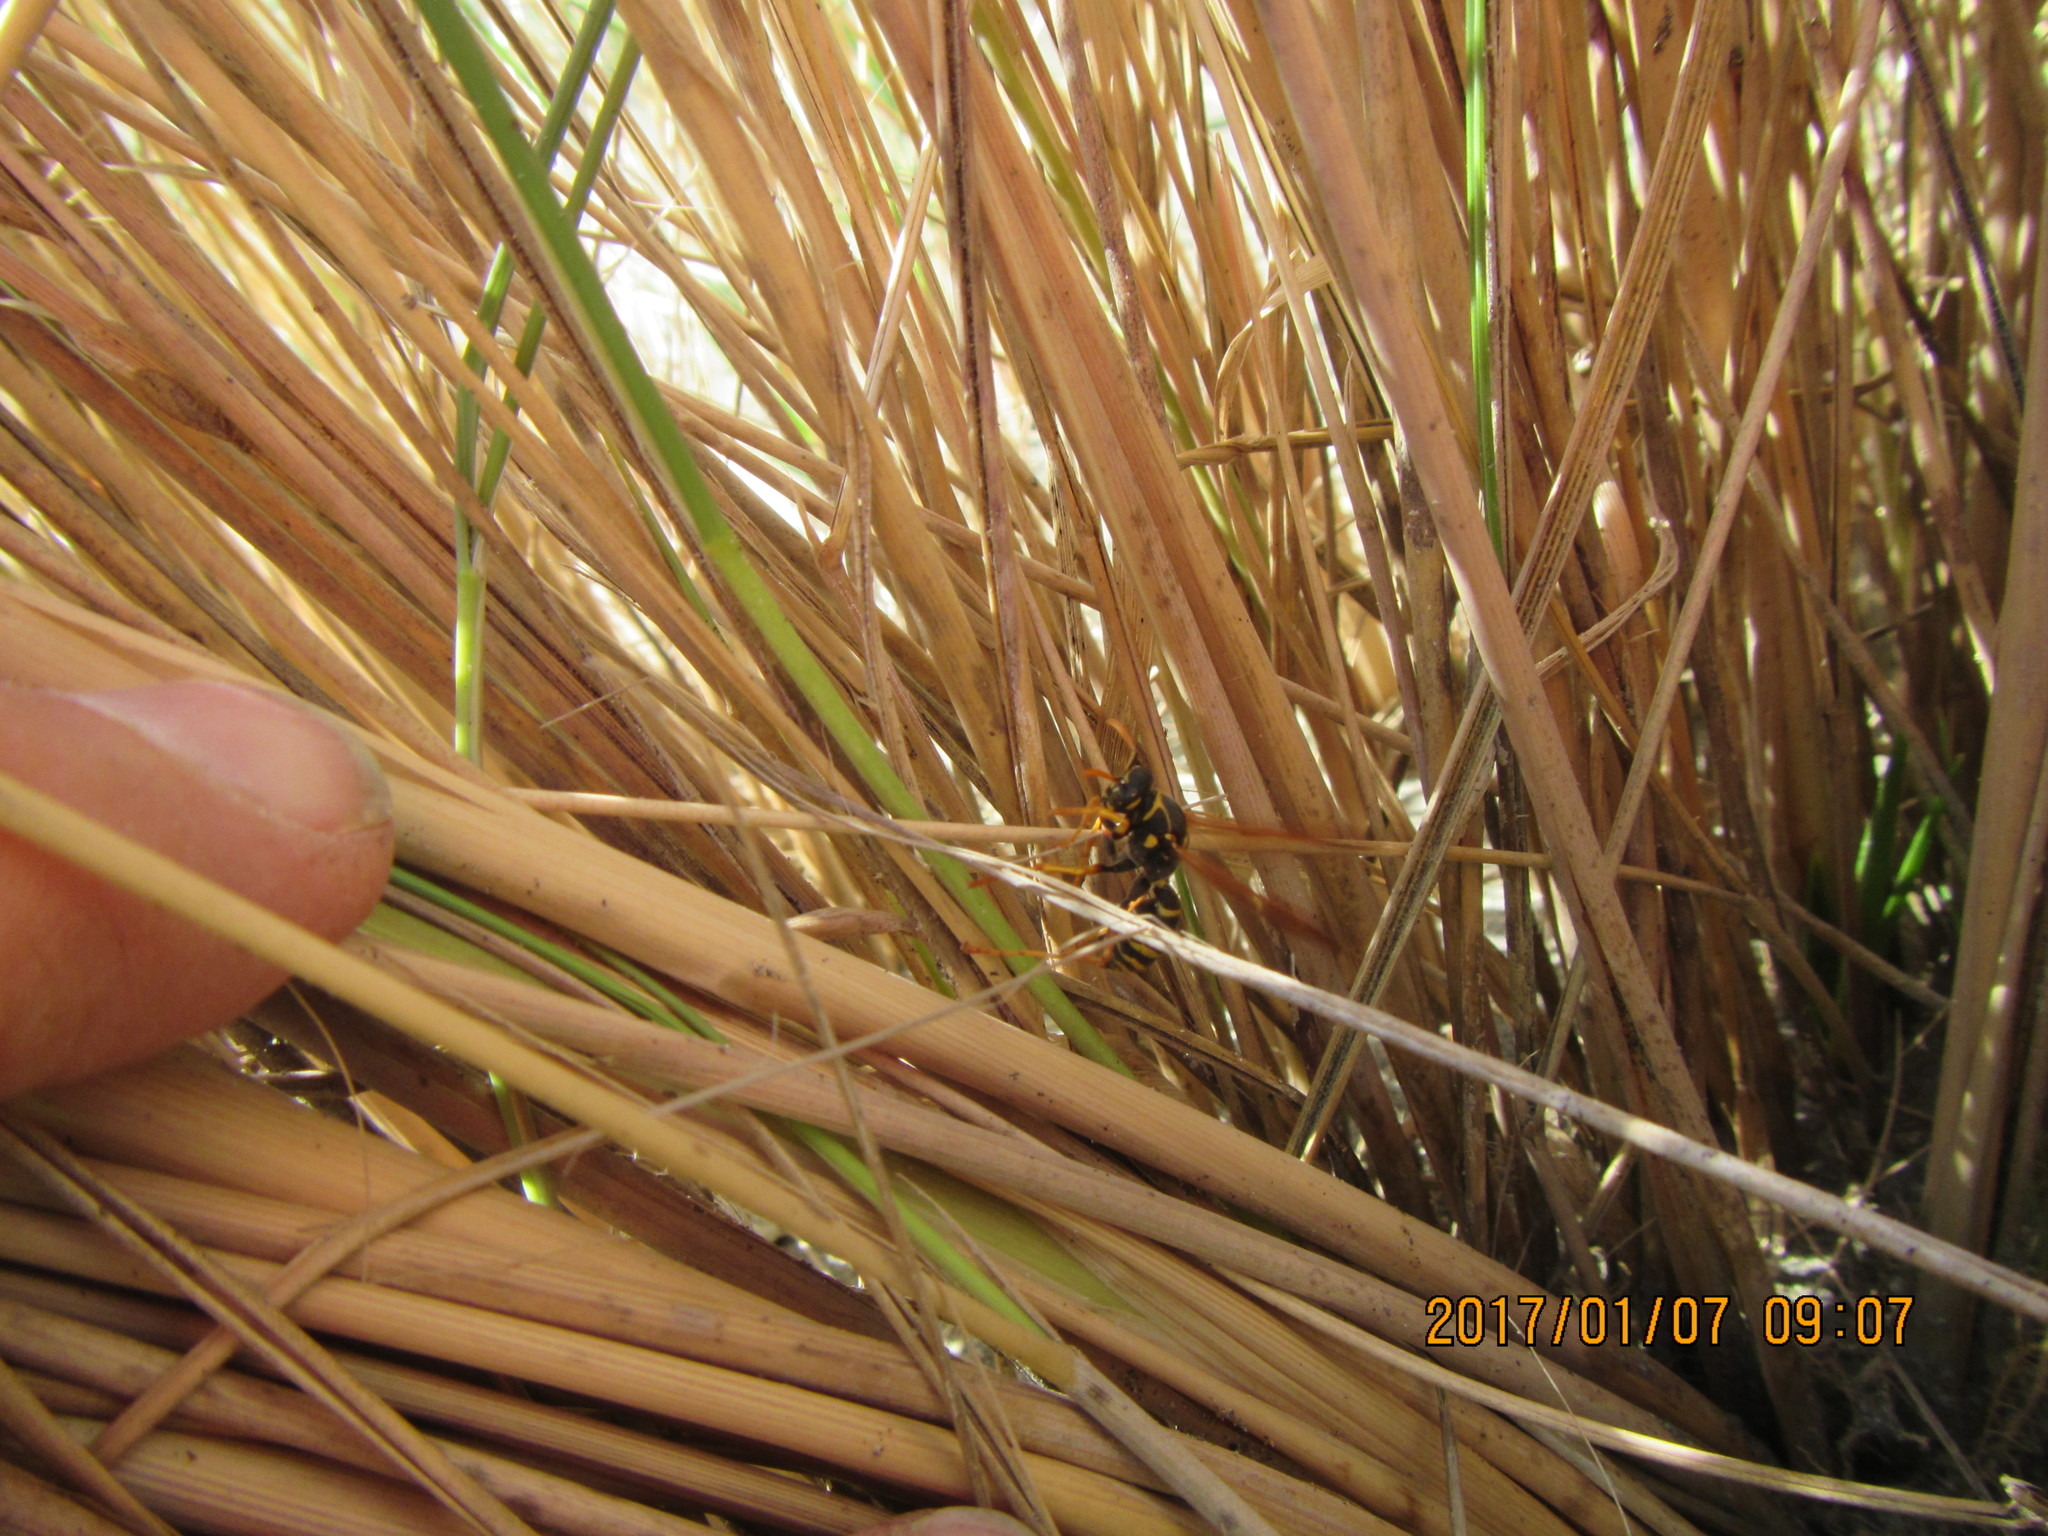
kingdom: Animalia
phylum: Arthropoda
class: Insecta
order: Hymenoptera
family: Eumenidae
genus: Polistes
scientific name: Polistes chinensis
